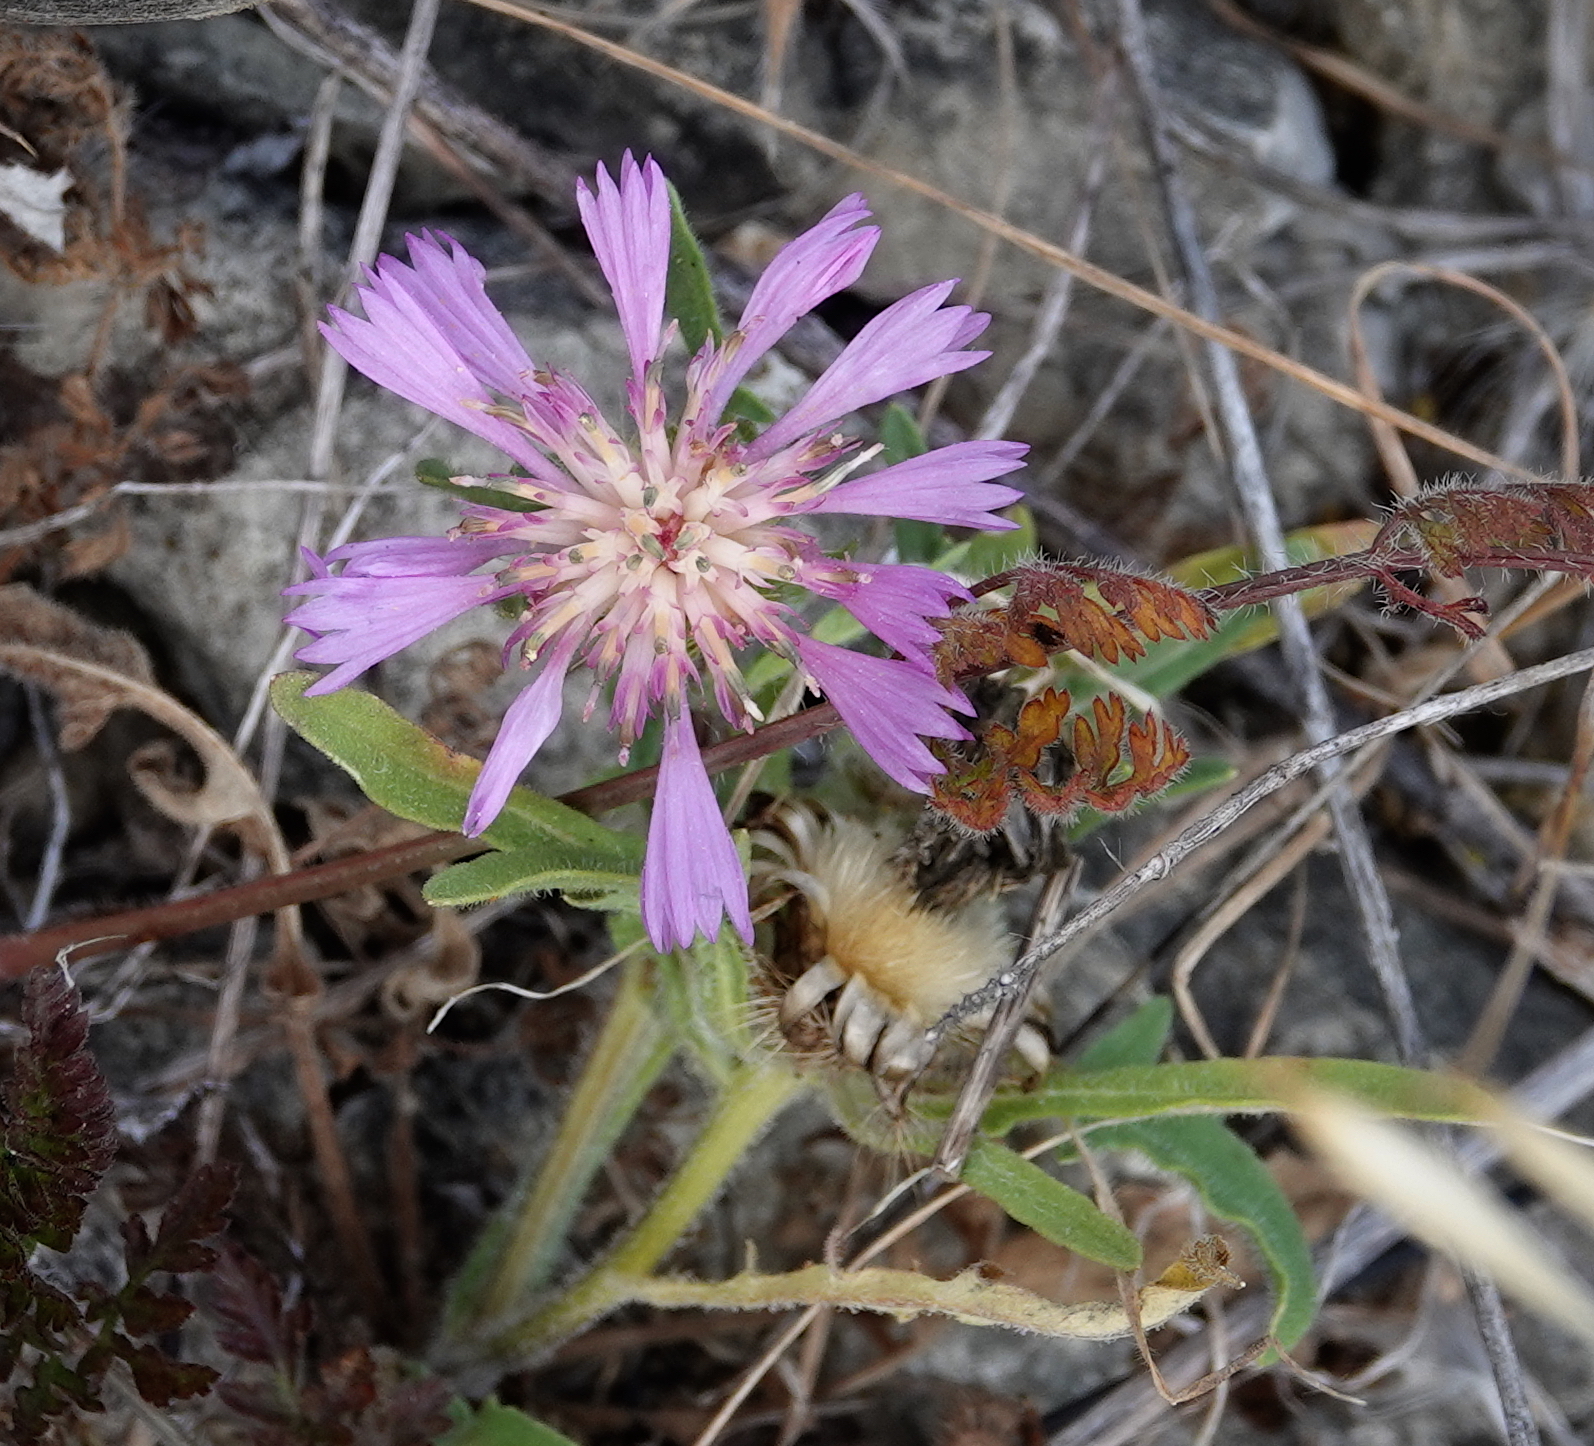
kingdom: Plantae
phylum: Tracheophyta
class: Magnoliopsida
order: Asterales
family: Asteraceae
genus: Centaurea
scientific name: Centaurea pullata
